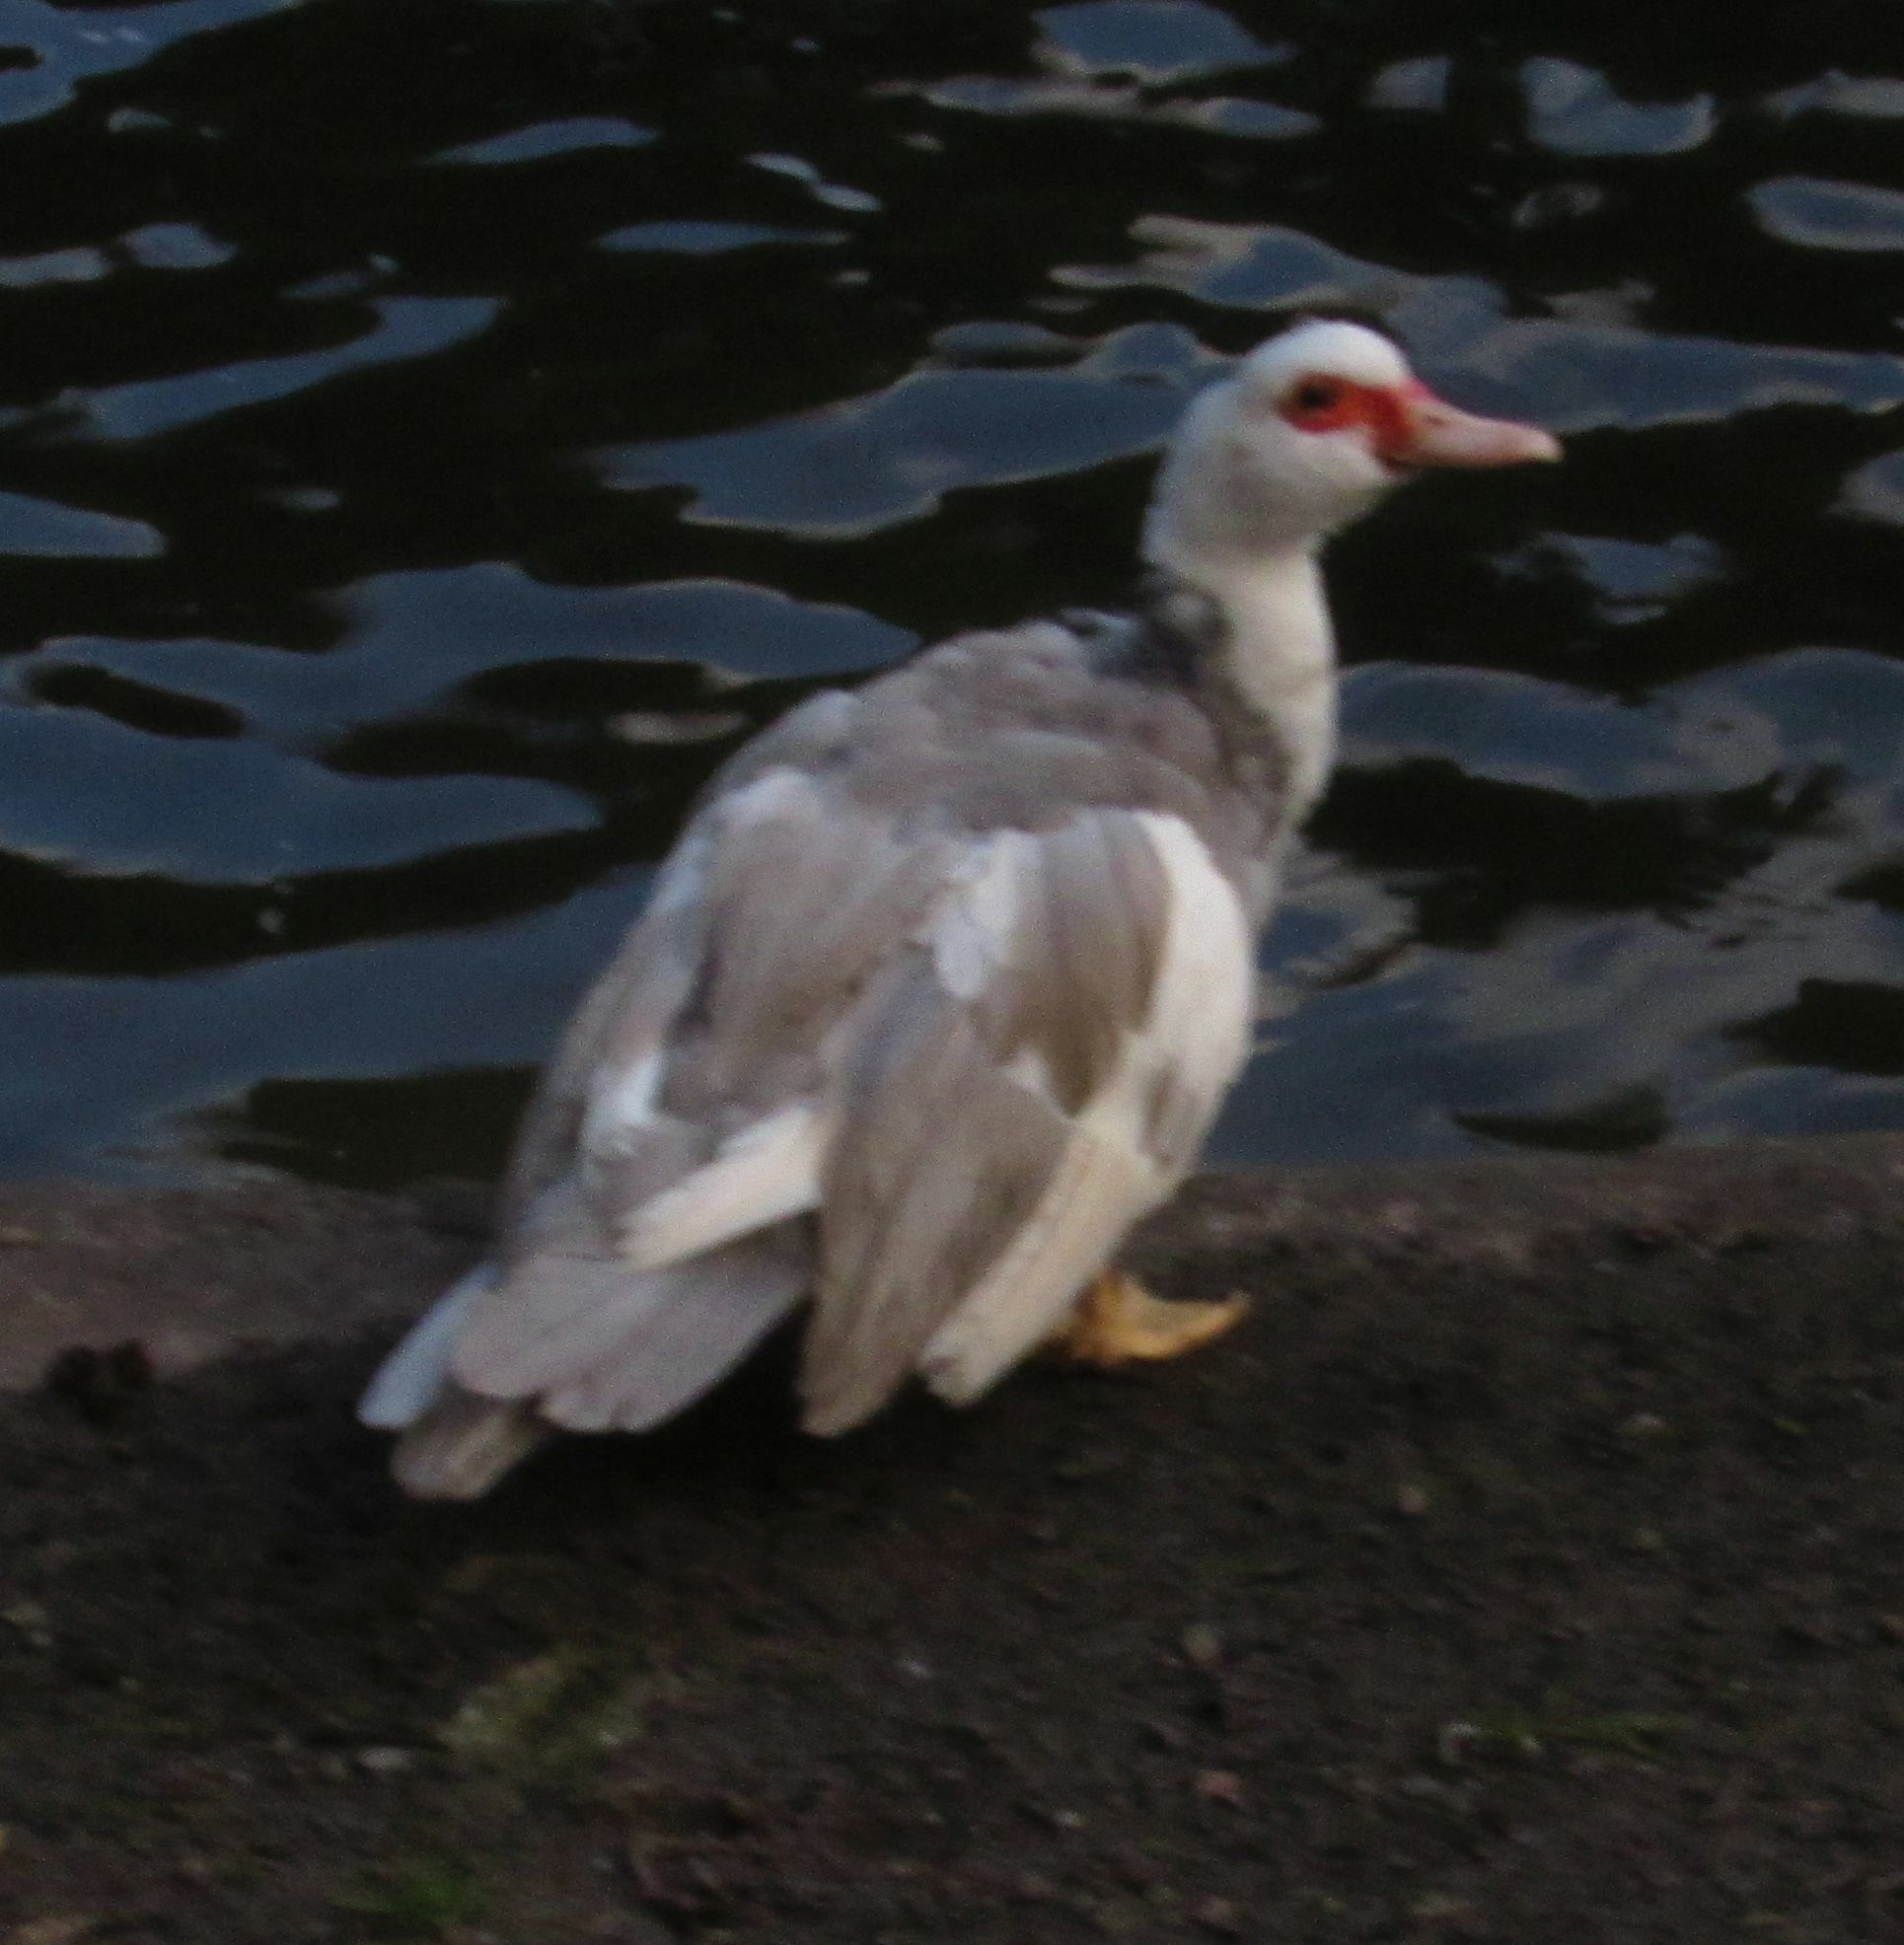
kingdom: Animalia
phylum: Chordata
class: Aves
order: Anseriformes
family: Anatidae
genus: Cairina
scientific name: Cairina moschata
